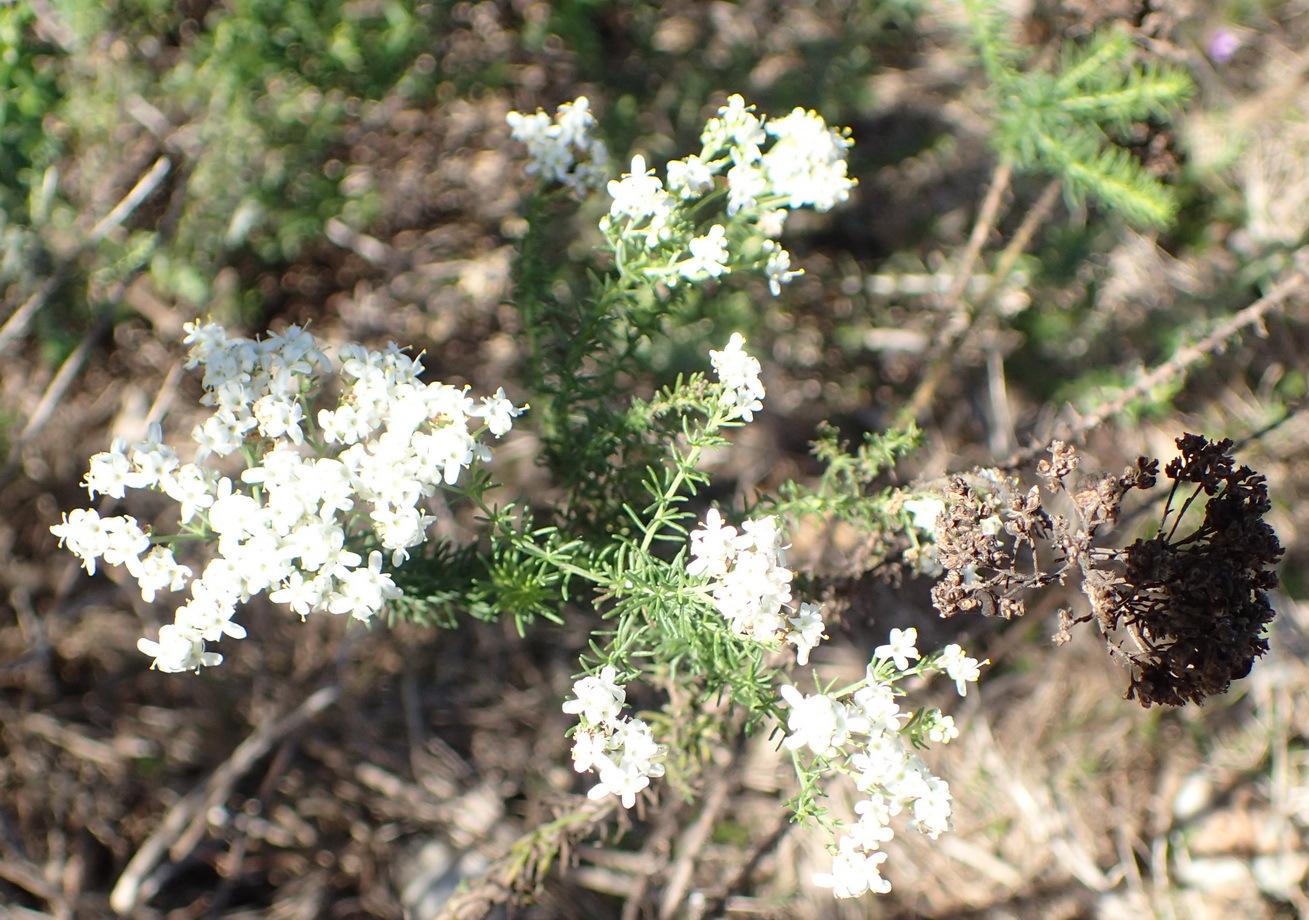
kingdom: Plantae
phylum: Tracheophyta
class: Magnoliopsida
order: Lamiales
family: Scrophulariaceae
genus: Selago
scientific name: Selago glomerata
